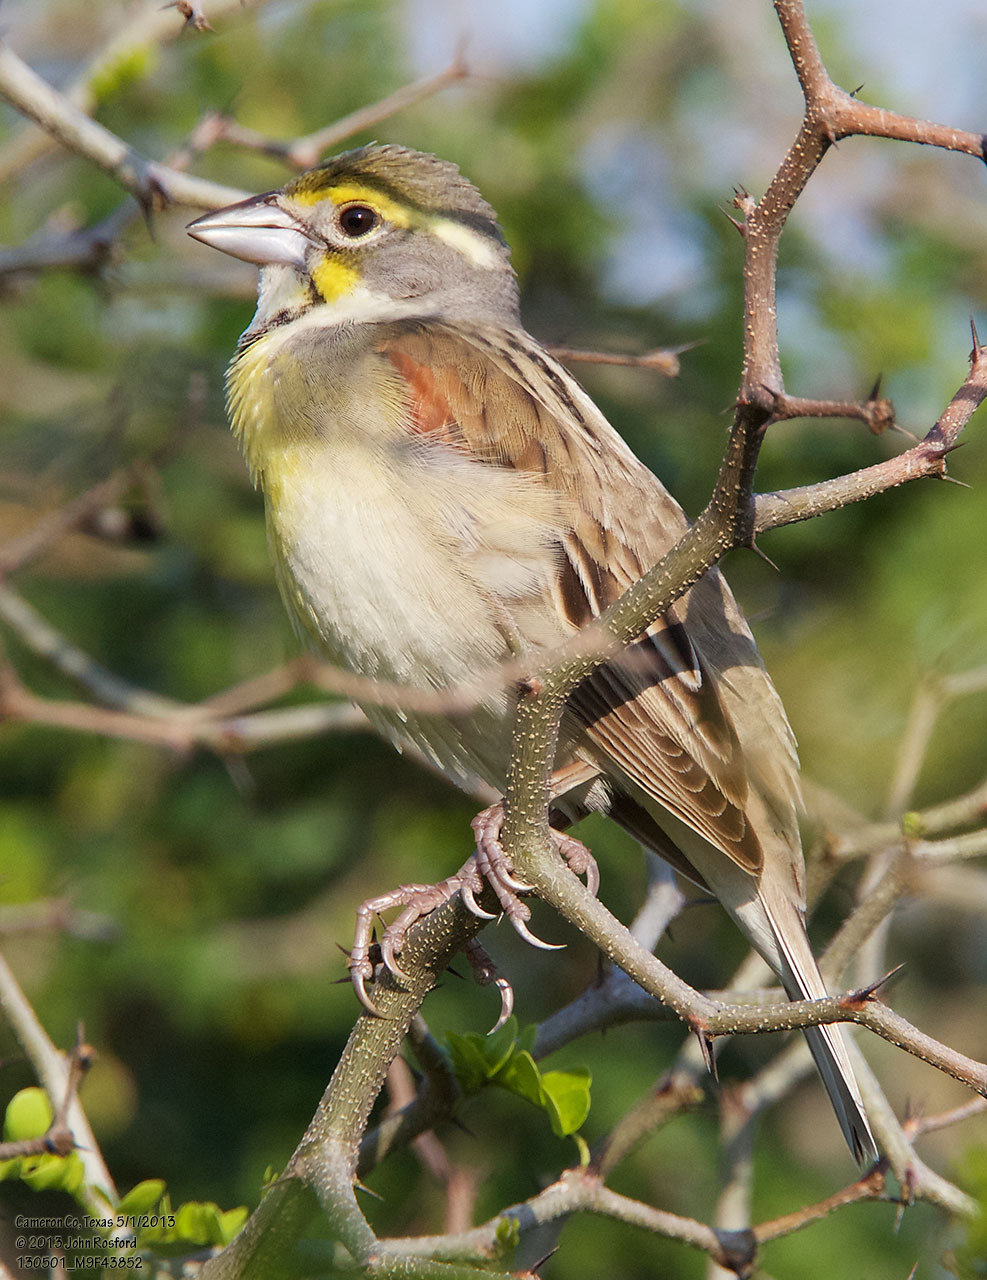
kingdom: Animalia
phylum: Chordata
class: Aves
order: Passeriformes
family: Cardinalidae
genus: Spiza
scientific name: Spiza americana
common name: Dickcissel
